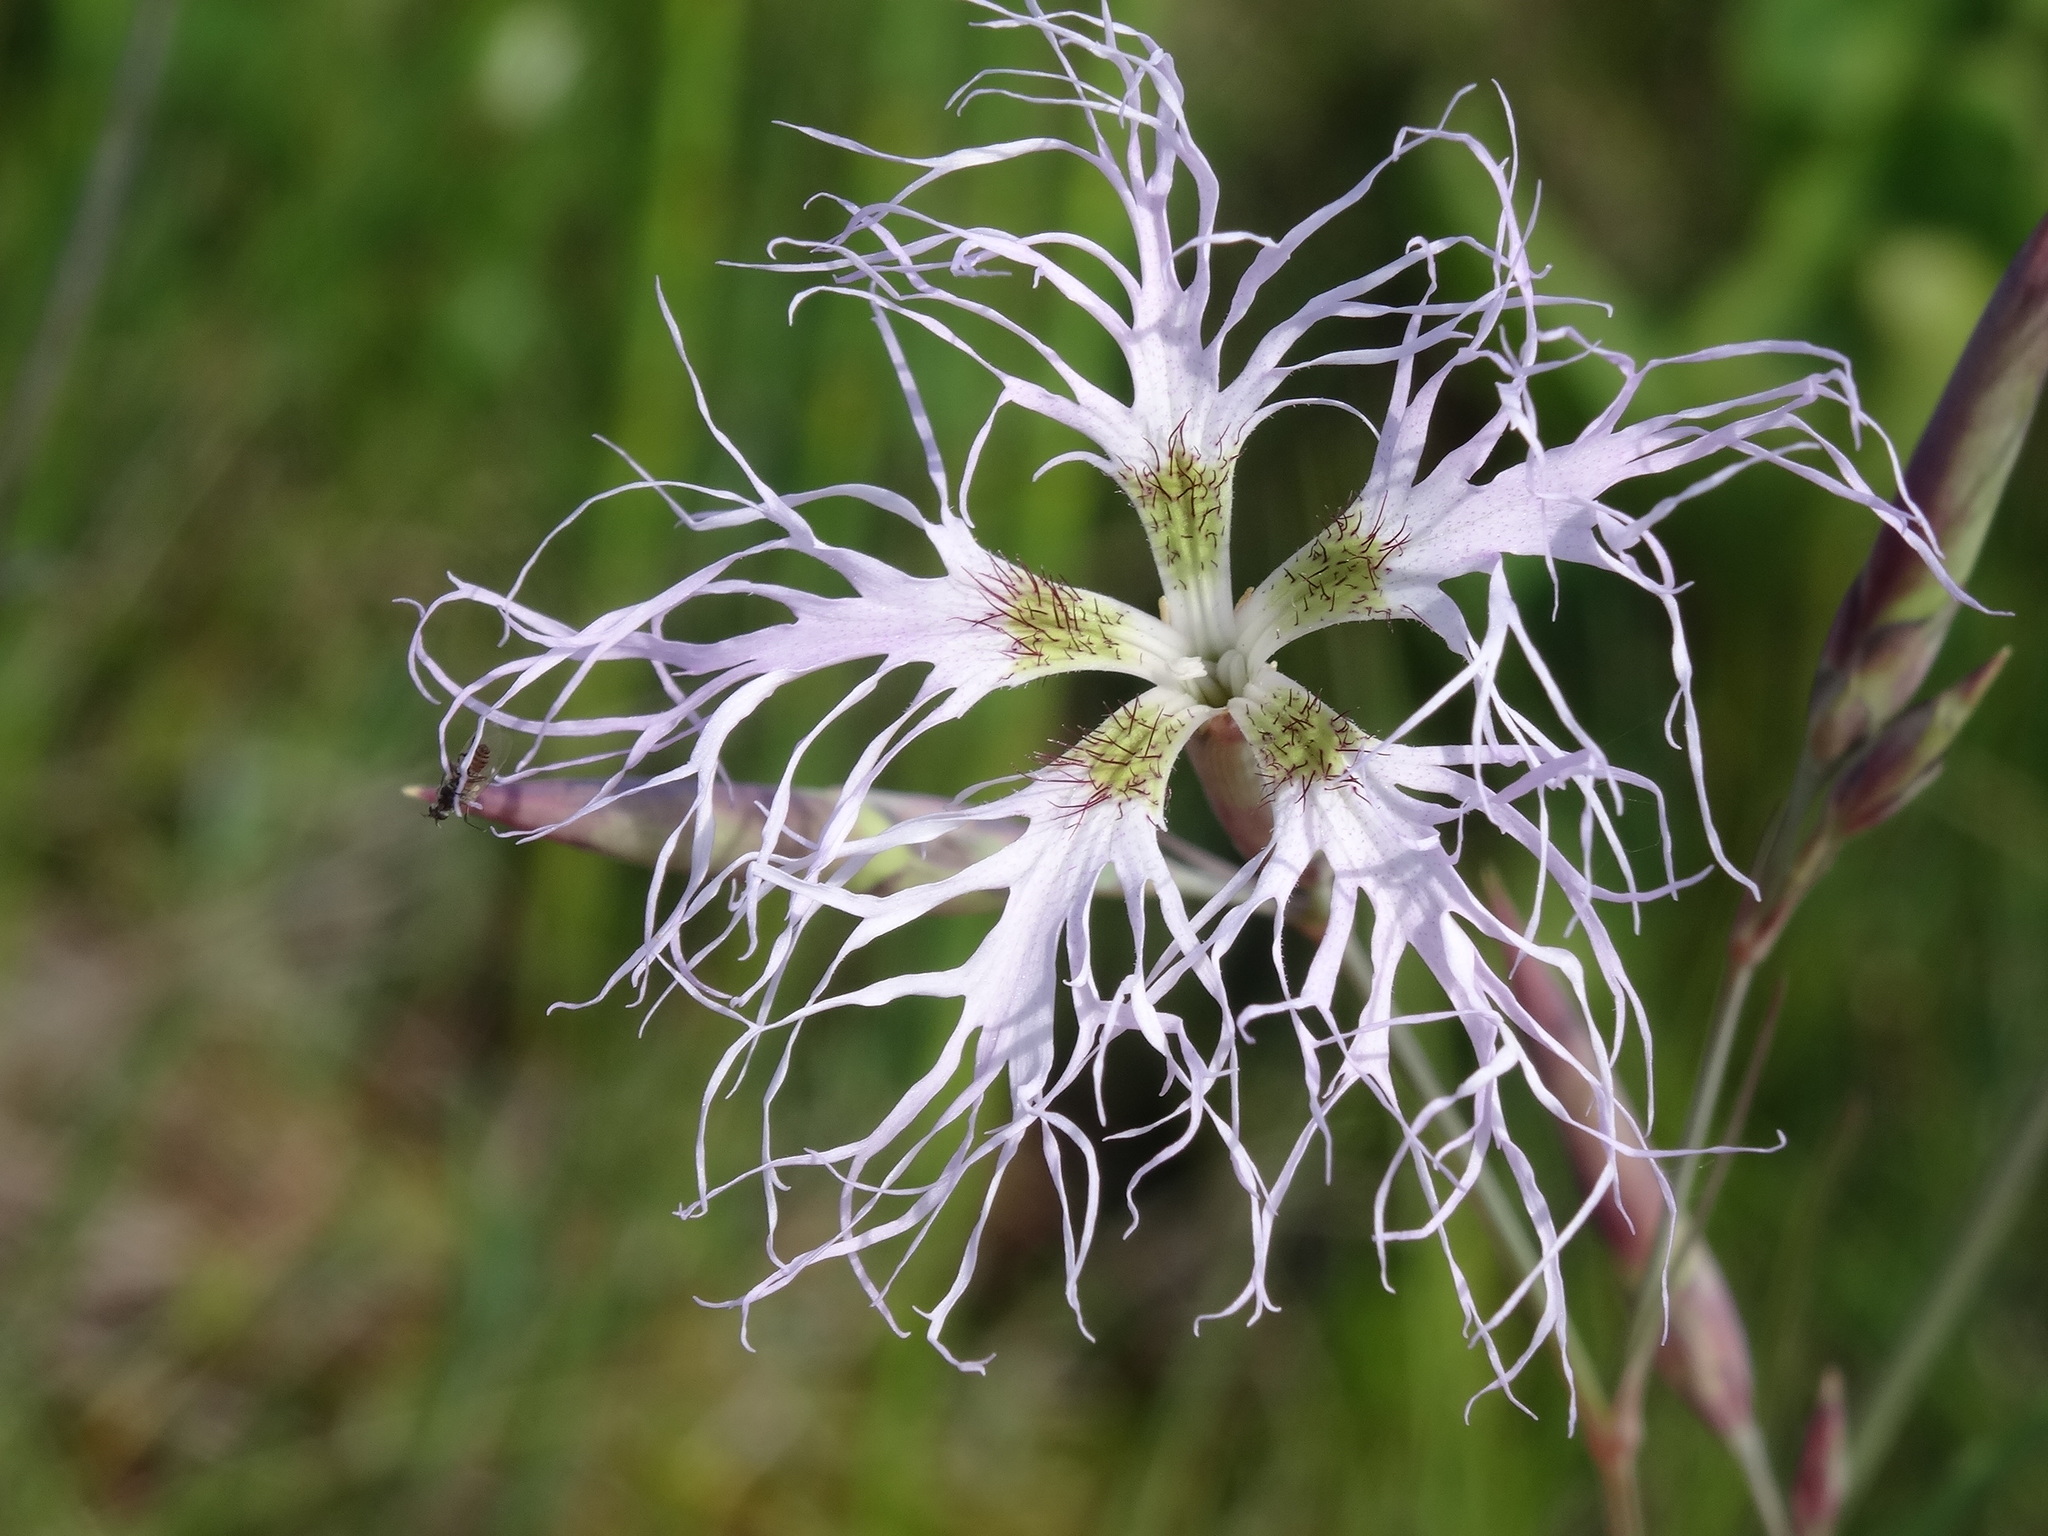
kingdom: Plantae
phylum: Tracheophyta
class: Magnoliopsida
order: Caryophyllales
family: Caryophyllaceae
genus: Dianthus
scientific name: Dianthus superbus
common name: Fringed pink
